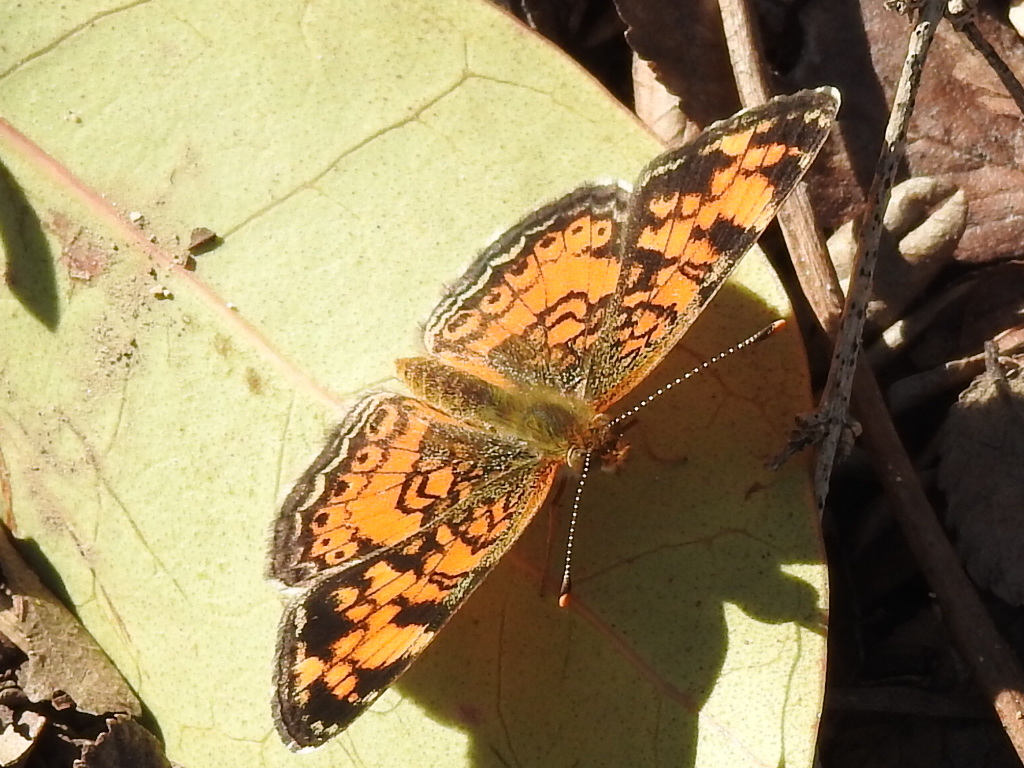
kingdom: Animalia
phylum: Arthropoda
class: Insecta
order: Lepidoptera
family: Nymphalidae
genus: Phyciodes
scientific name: Phyciodes tharos
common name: Pearl crescent
